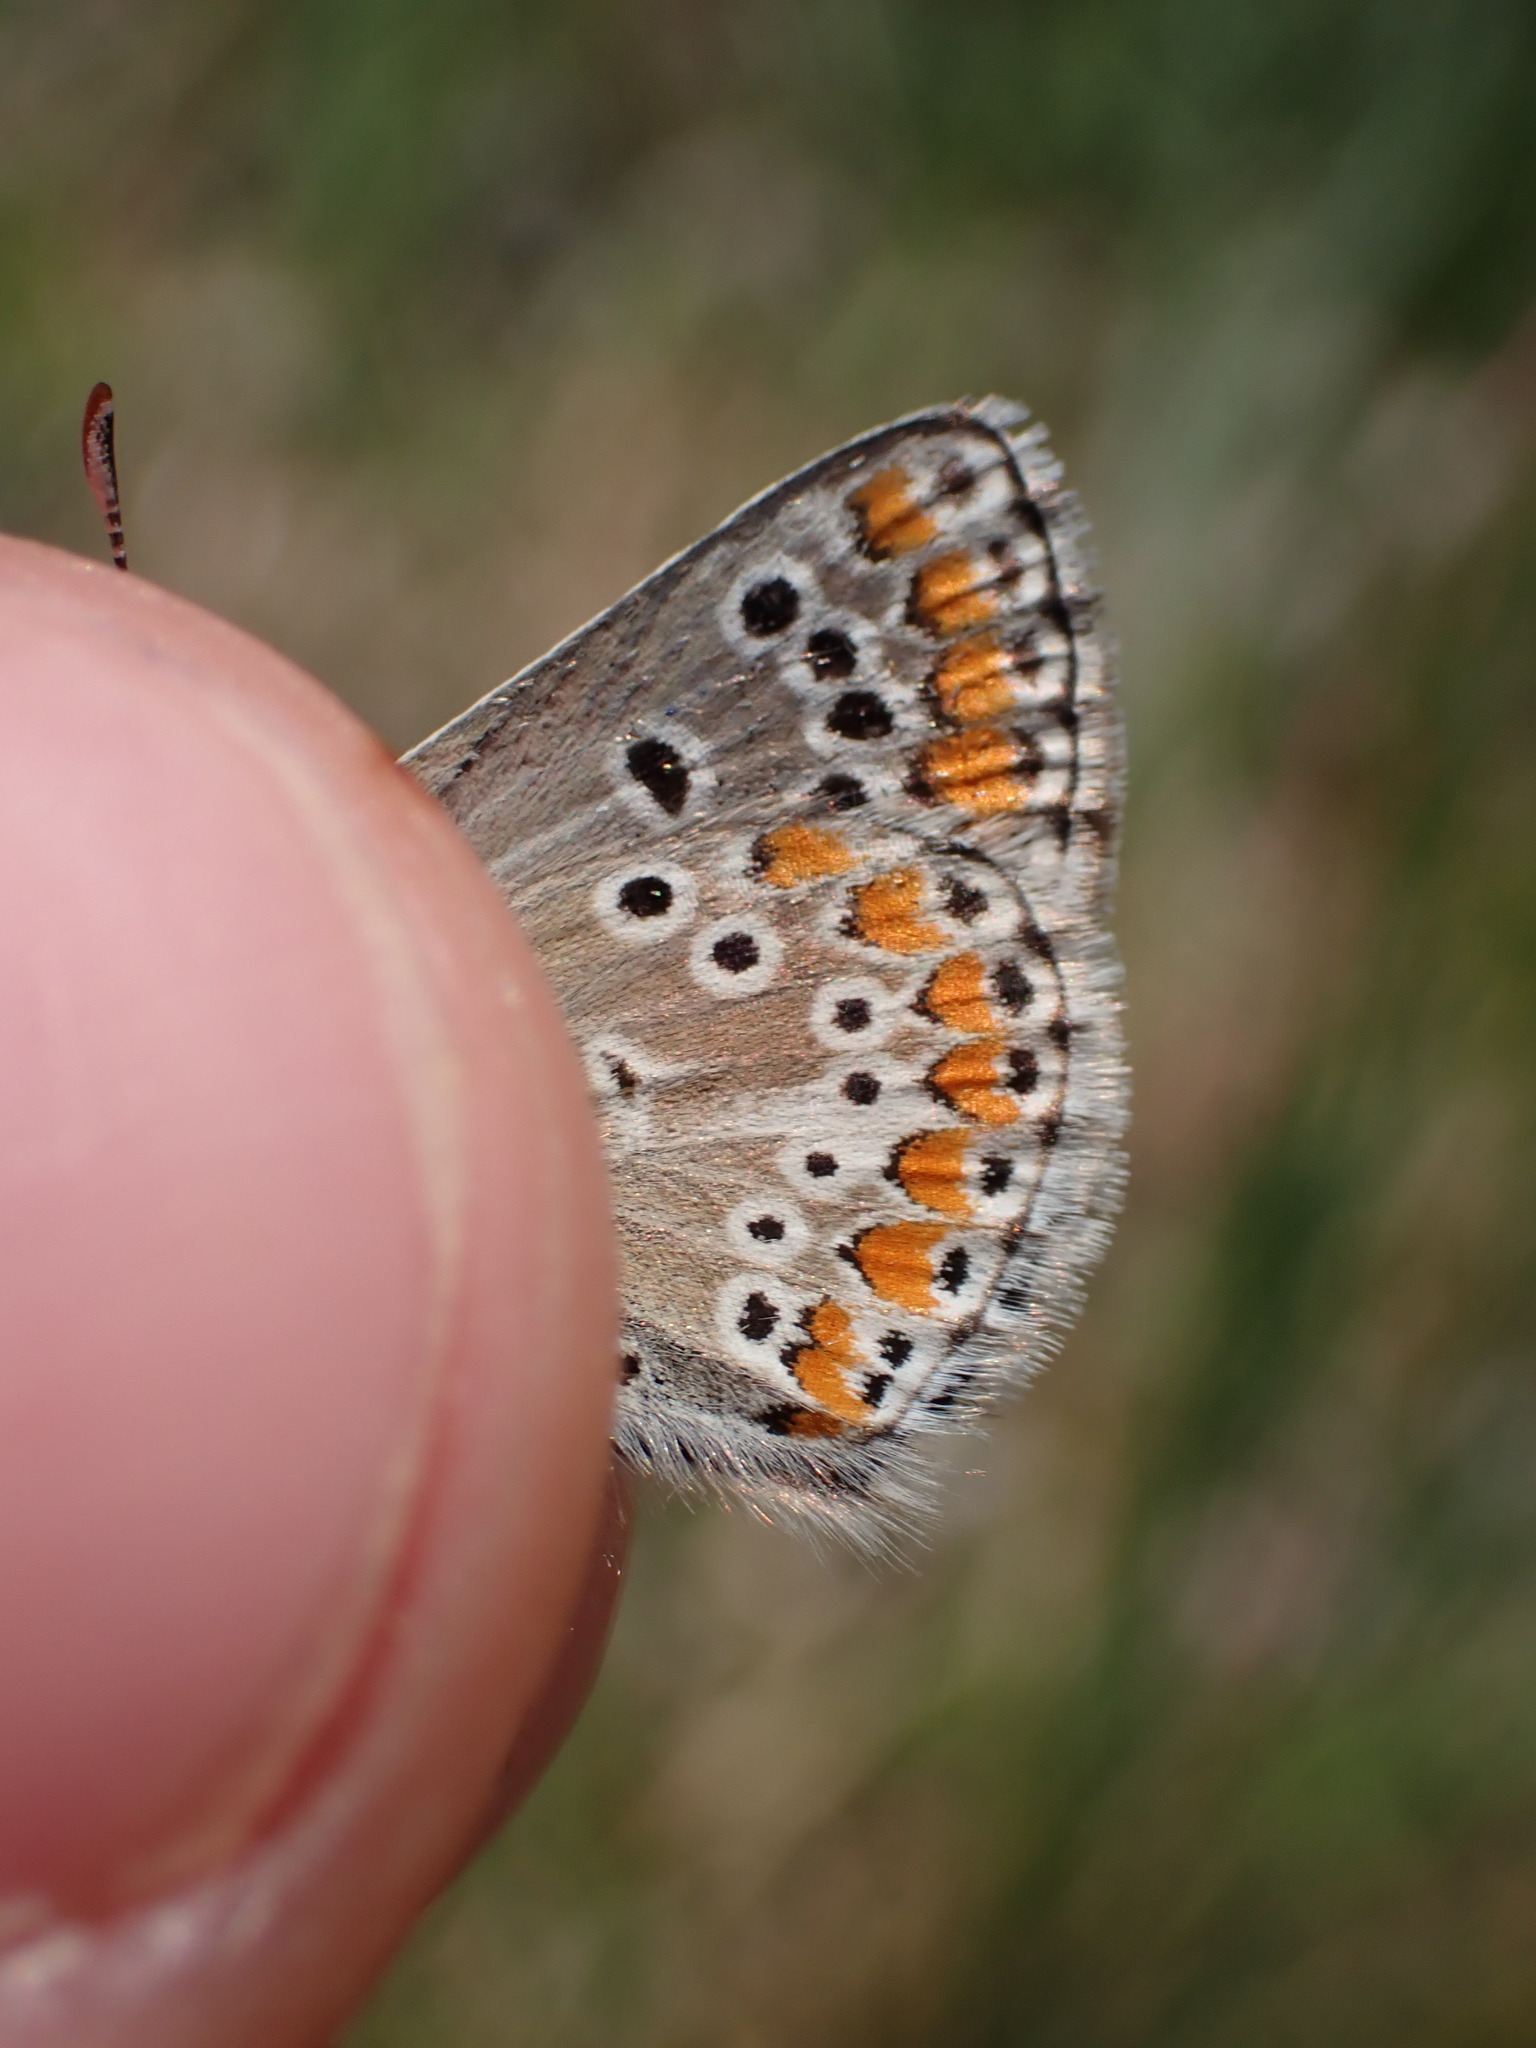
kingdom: Animalia
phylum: Arthropoda
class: Insecta
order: Lepidoptera
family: Lycaenidae
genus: Aricia
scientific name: Aricia agestis
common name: Brown argus
